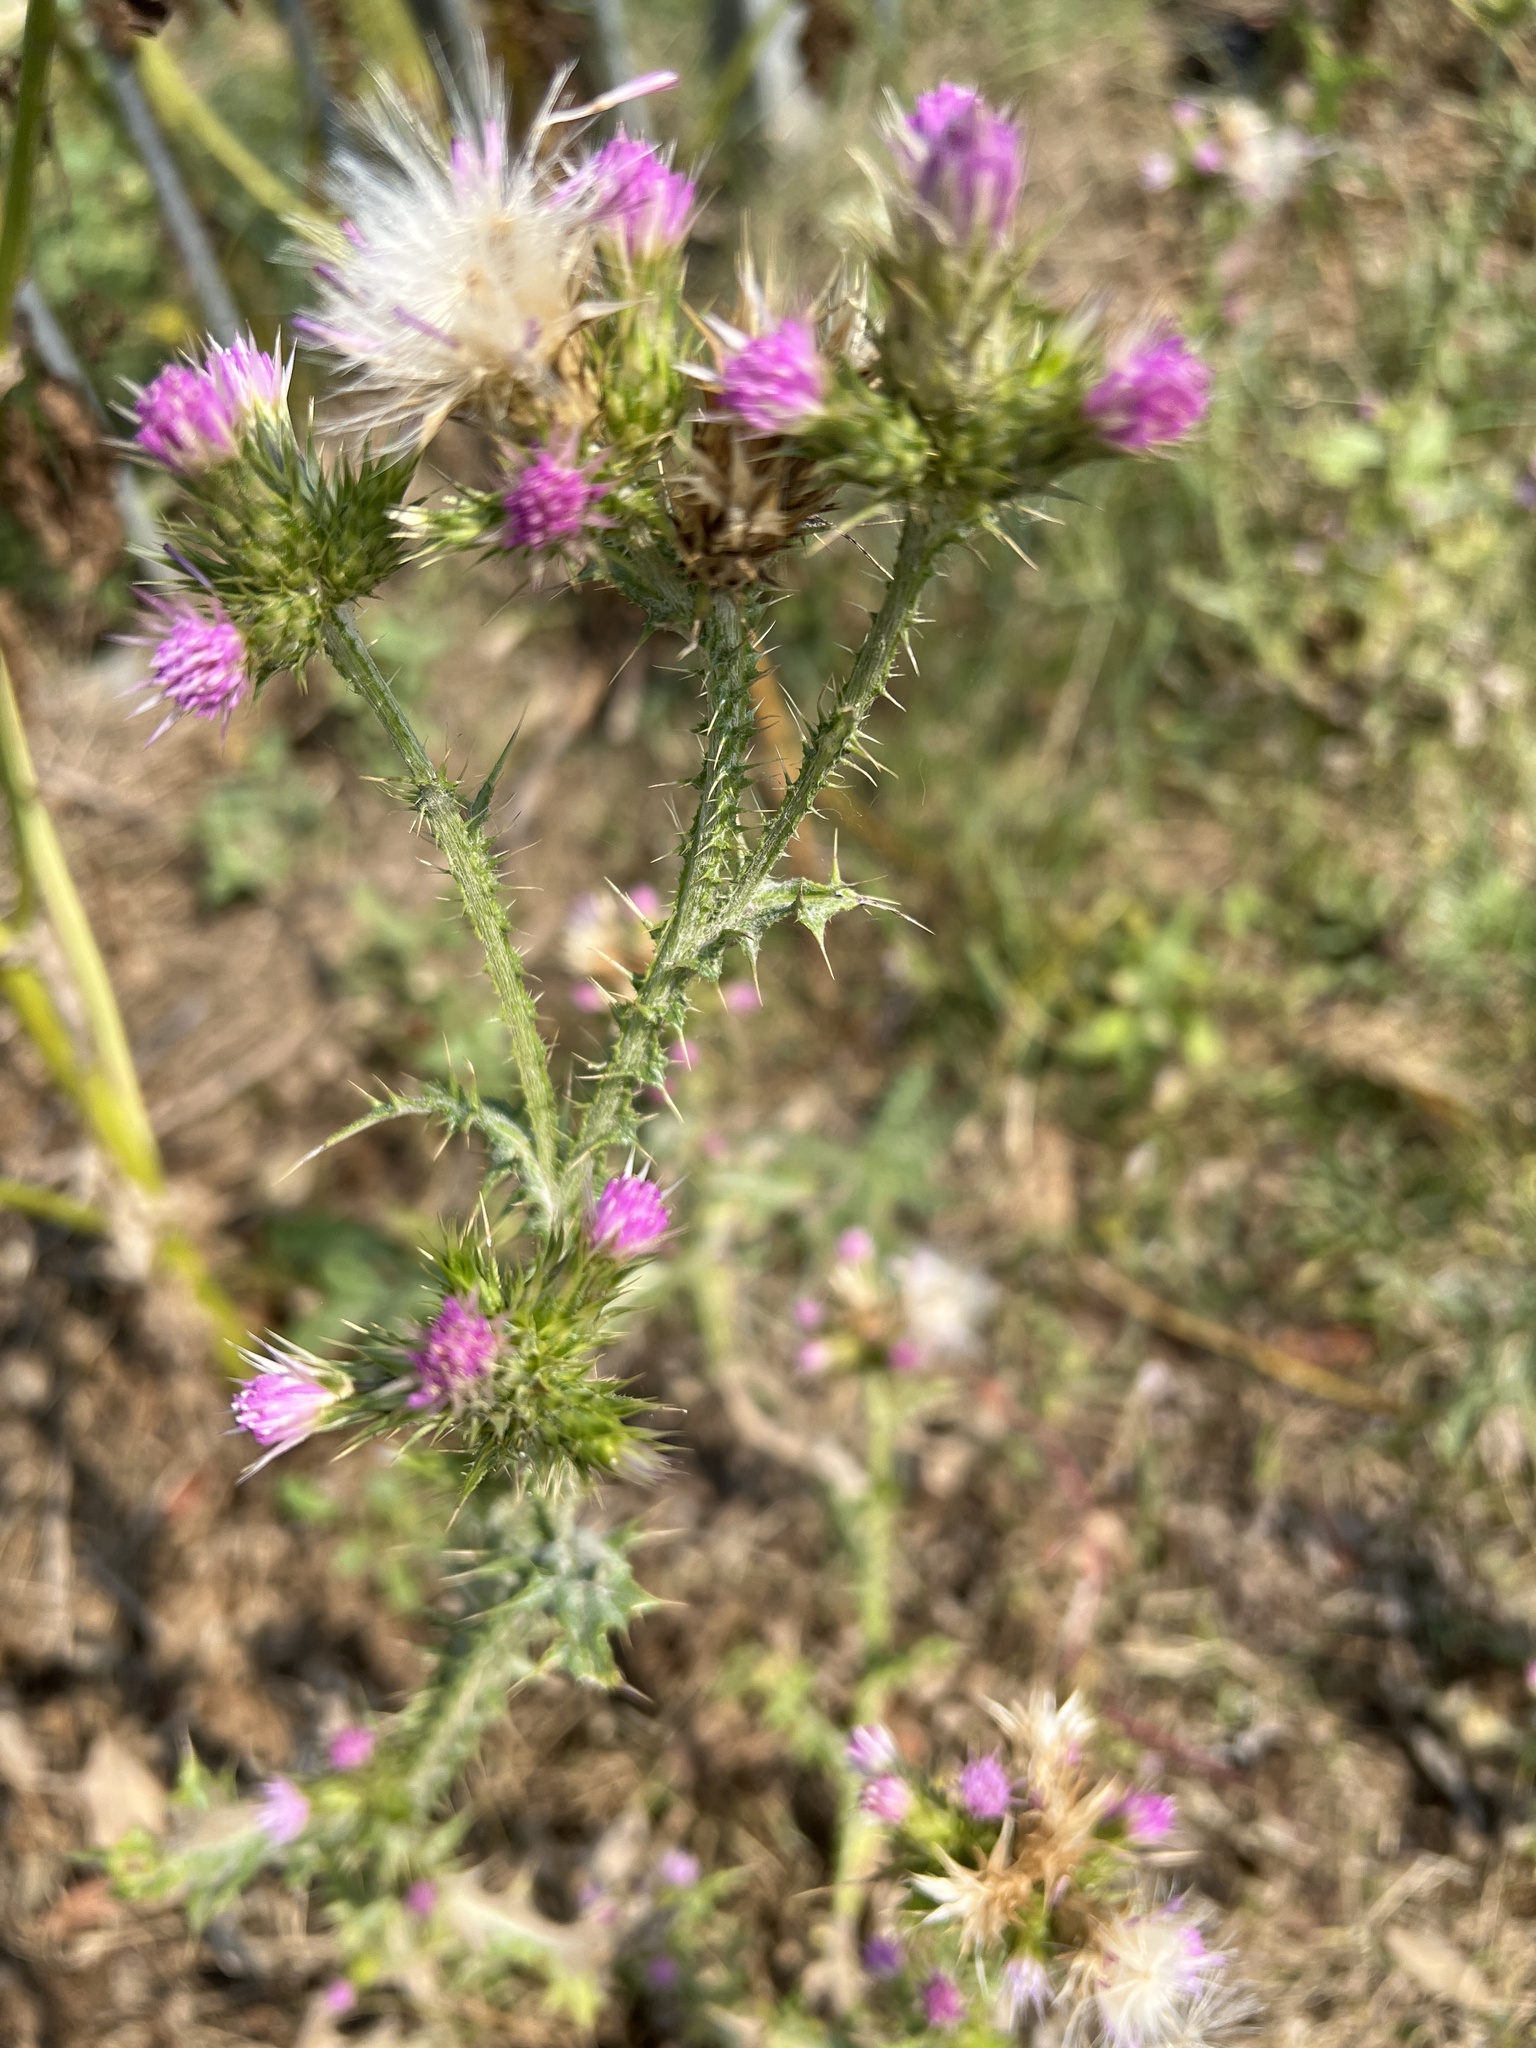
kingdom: Plantae
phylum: Tracheophyta
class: Magnoliopsida
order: Asterales
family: Asteraceae
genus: Carduus
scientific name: Carduus tenuiflorus
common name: Slender thistle
